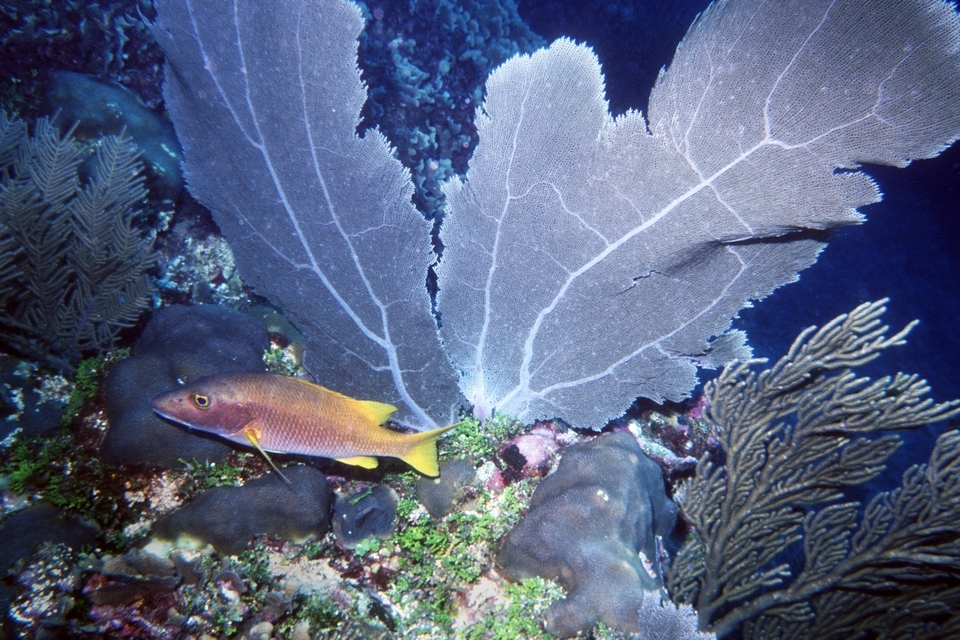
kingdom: Animalia
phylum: Chordata
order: Perciformes
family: Lutjanidae
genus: Lutjanus
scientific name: Lutjanus apodus
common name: Schoolmaster
